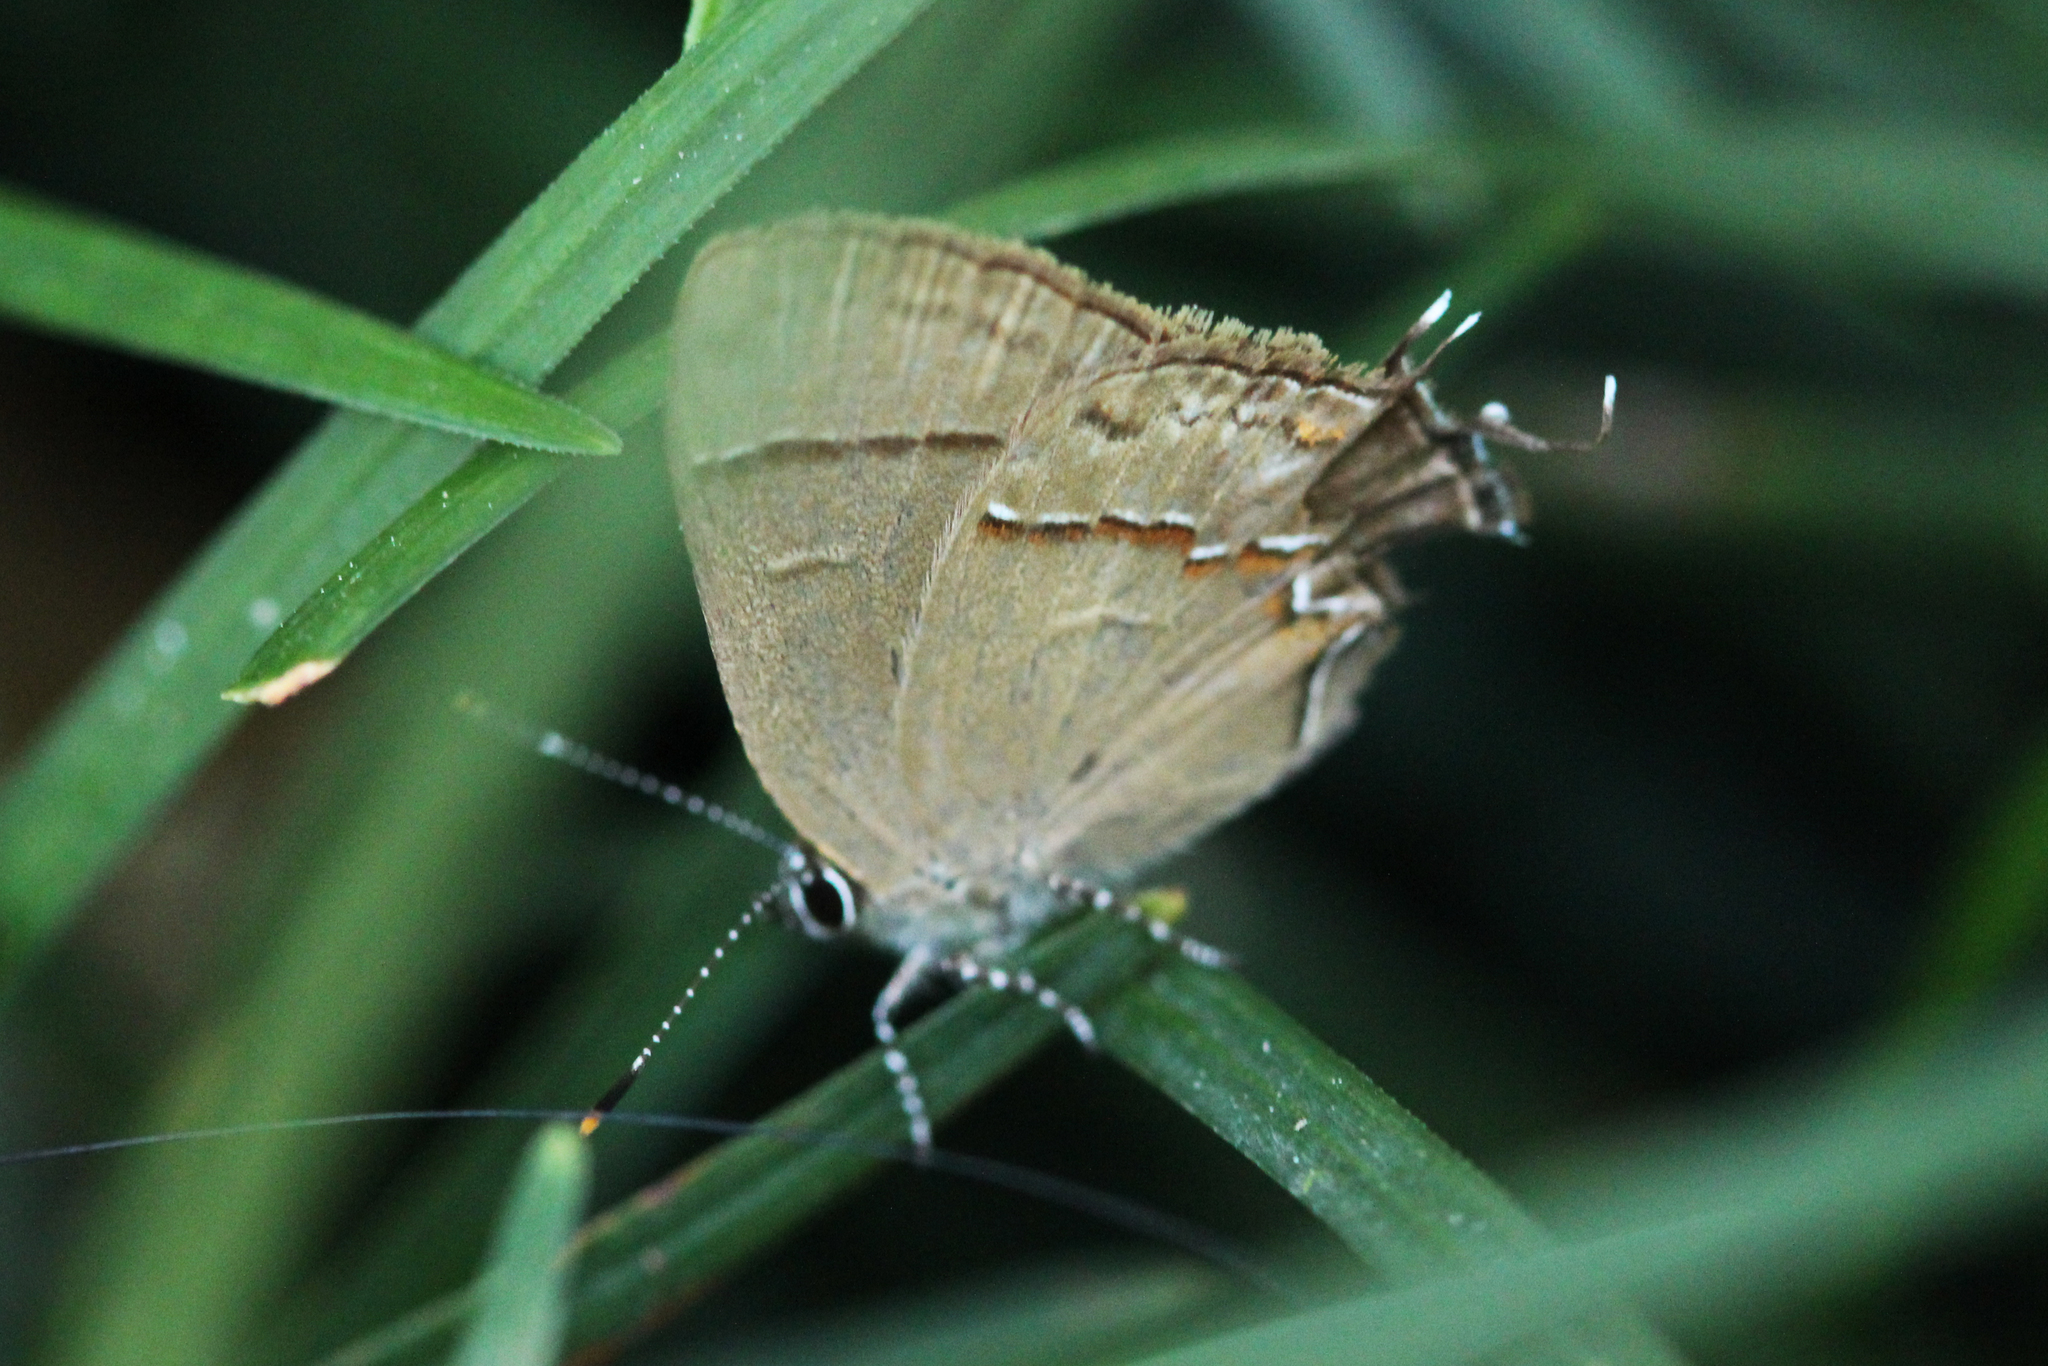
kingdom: Animalia
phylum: Arthropoda
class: Insecta
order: Lepidoptera
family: Lycaenidae
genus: Electrostrymon
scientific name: Electrostrymon denarius
